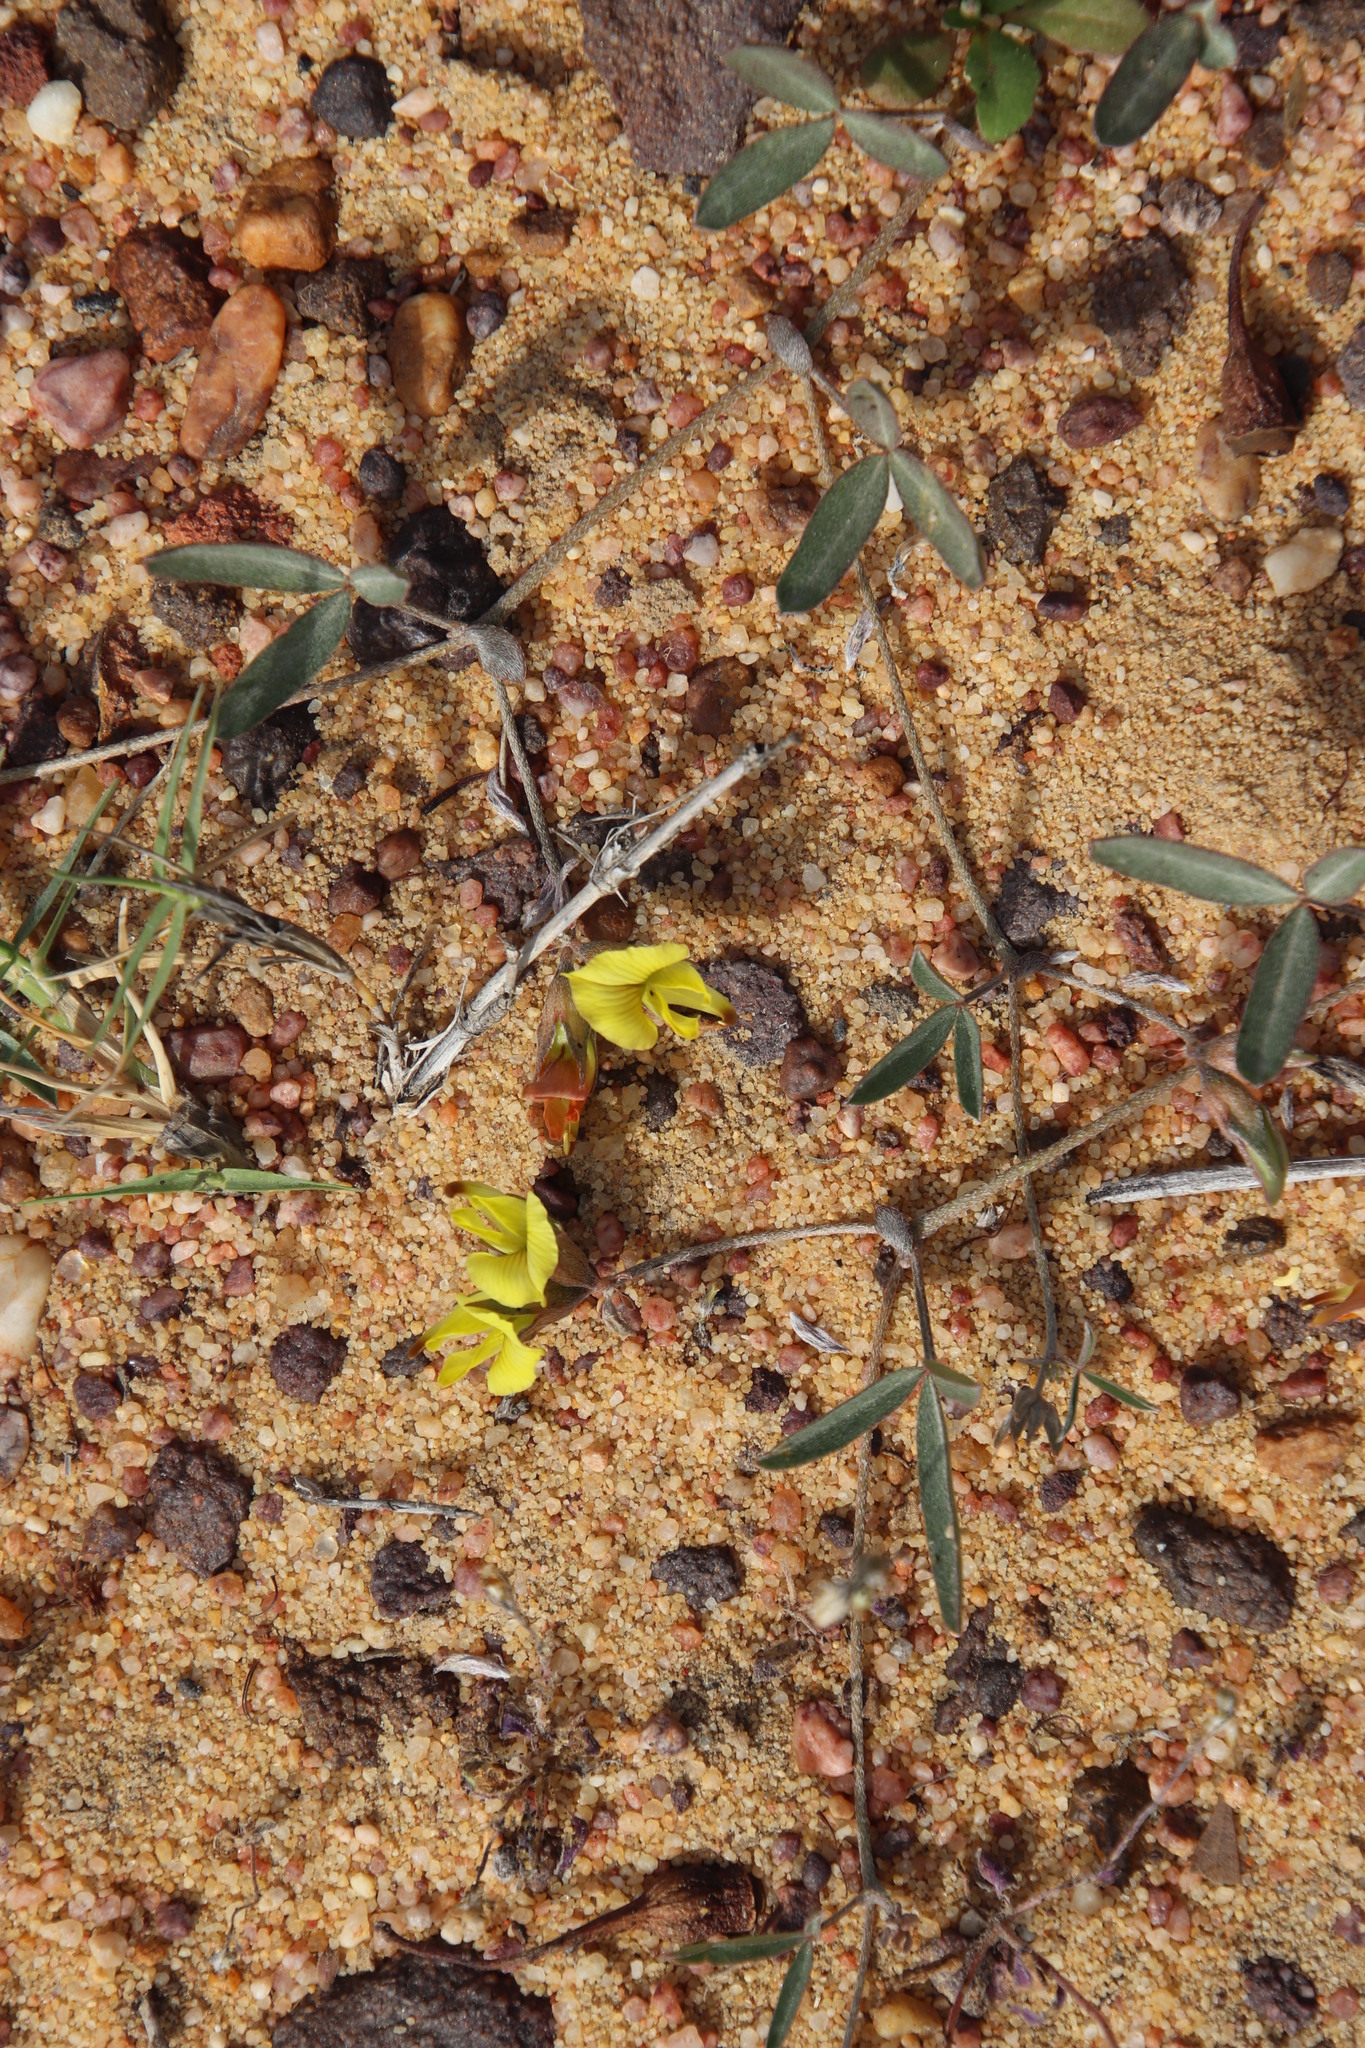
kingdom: Plantae
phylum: Tracheophyta
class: Magnoliopsida
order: Fabales
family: Fabaceae
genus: Lotononis
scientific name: Lotononis stenophylla
